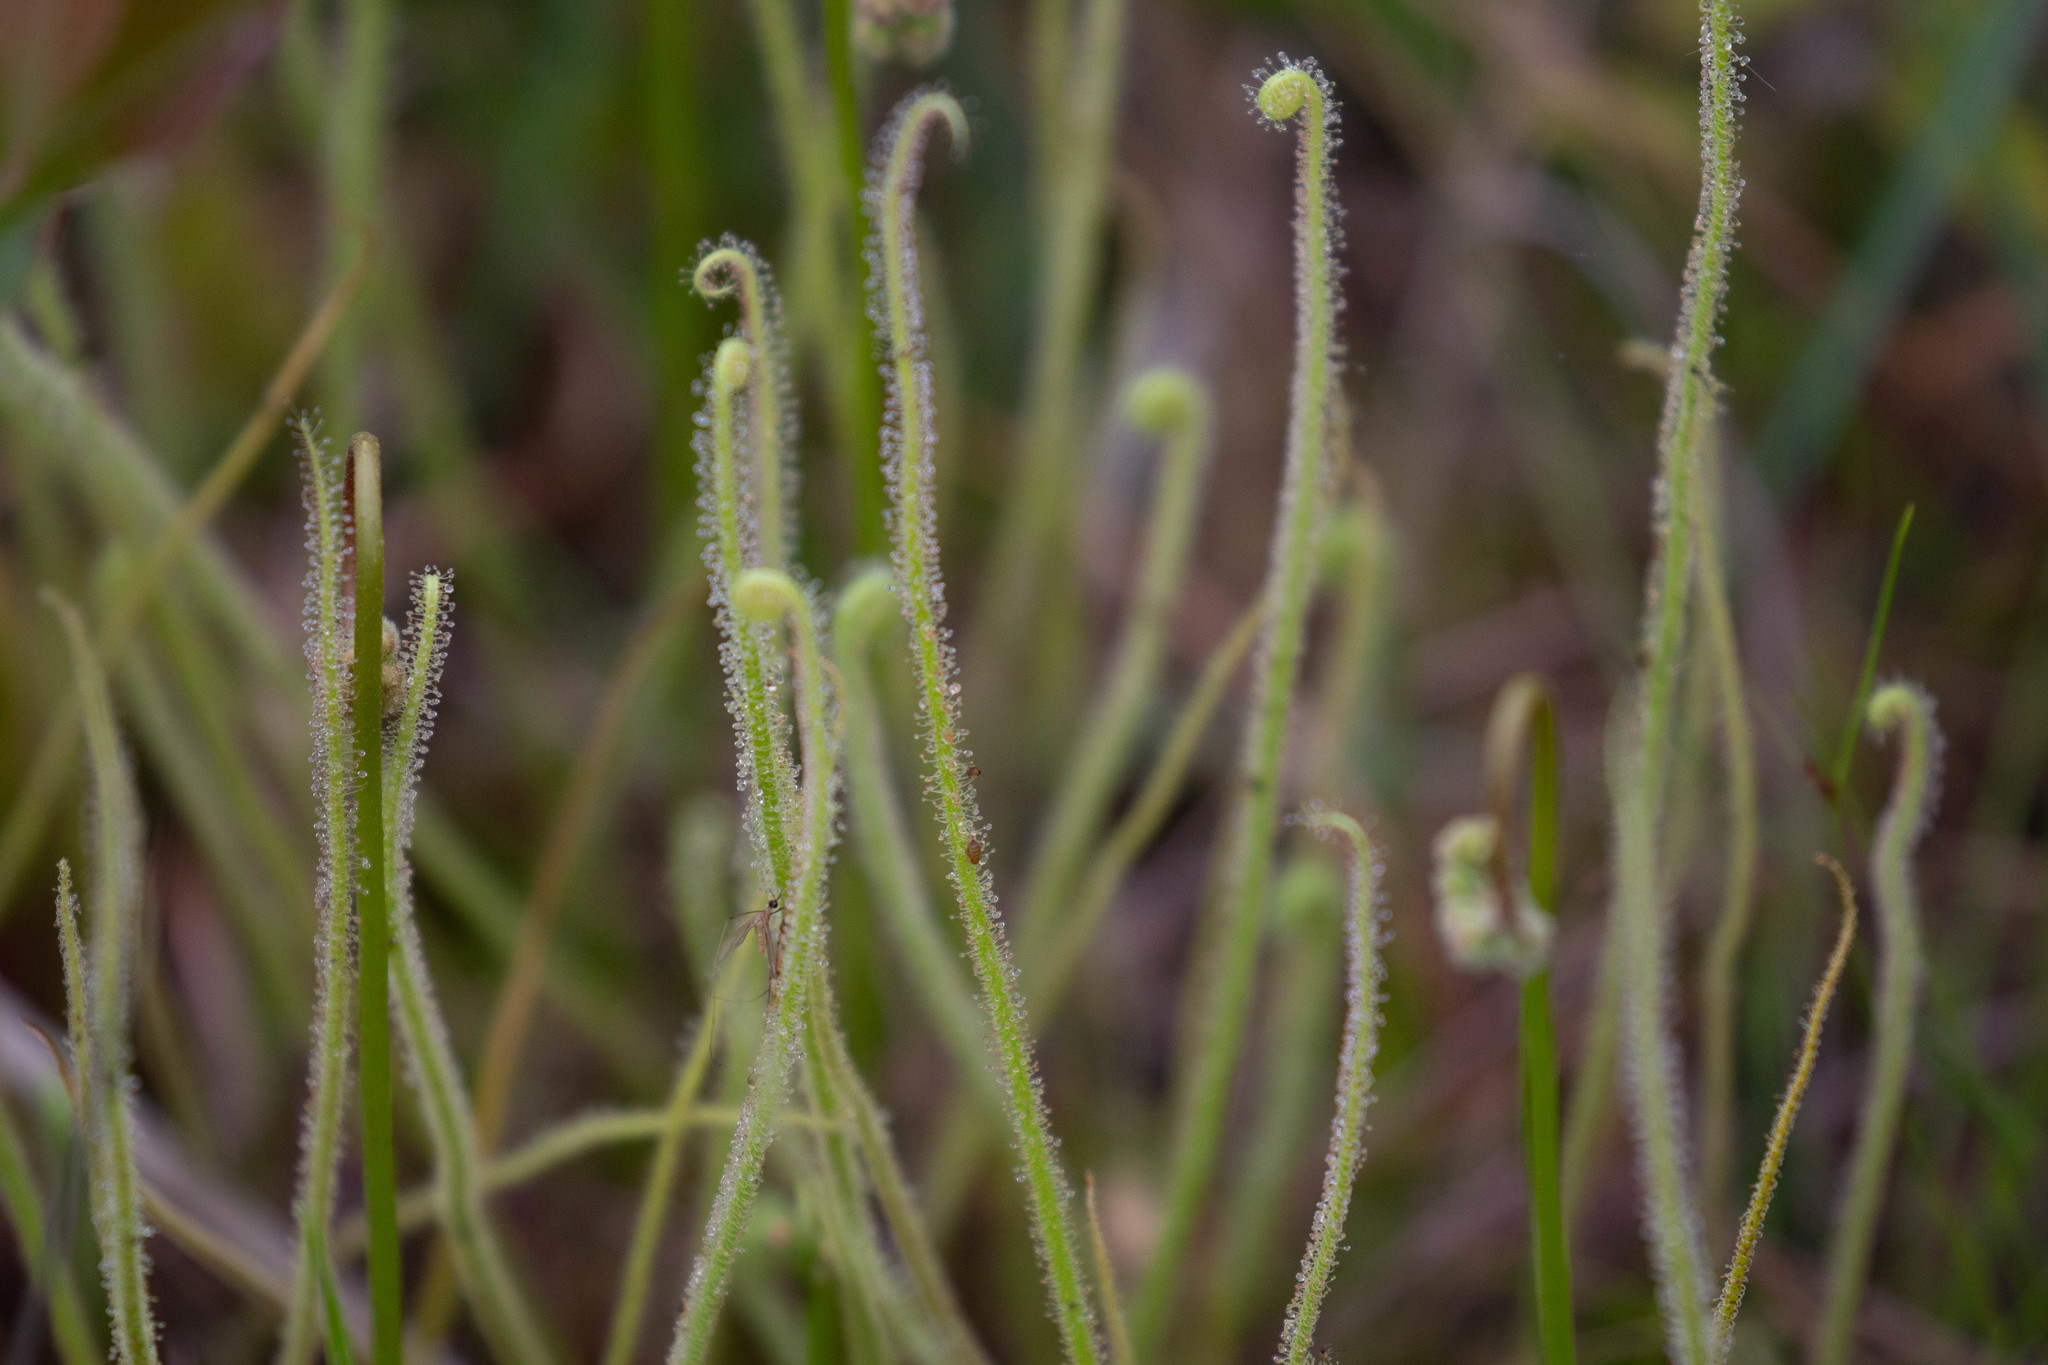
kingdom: Plantae
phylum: Tracheophyta
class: Magnoliopsida
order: Caryophyllales
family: Droseraceae
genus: Drosera
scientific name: Drosera filiformis
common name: Dew-thread
